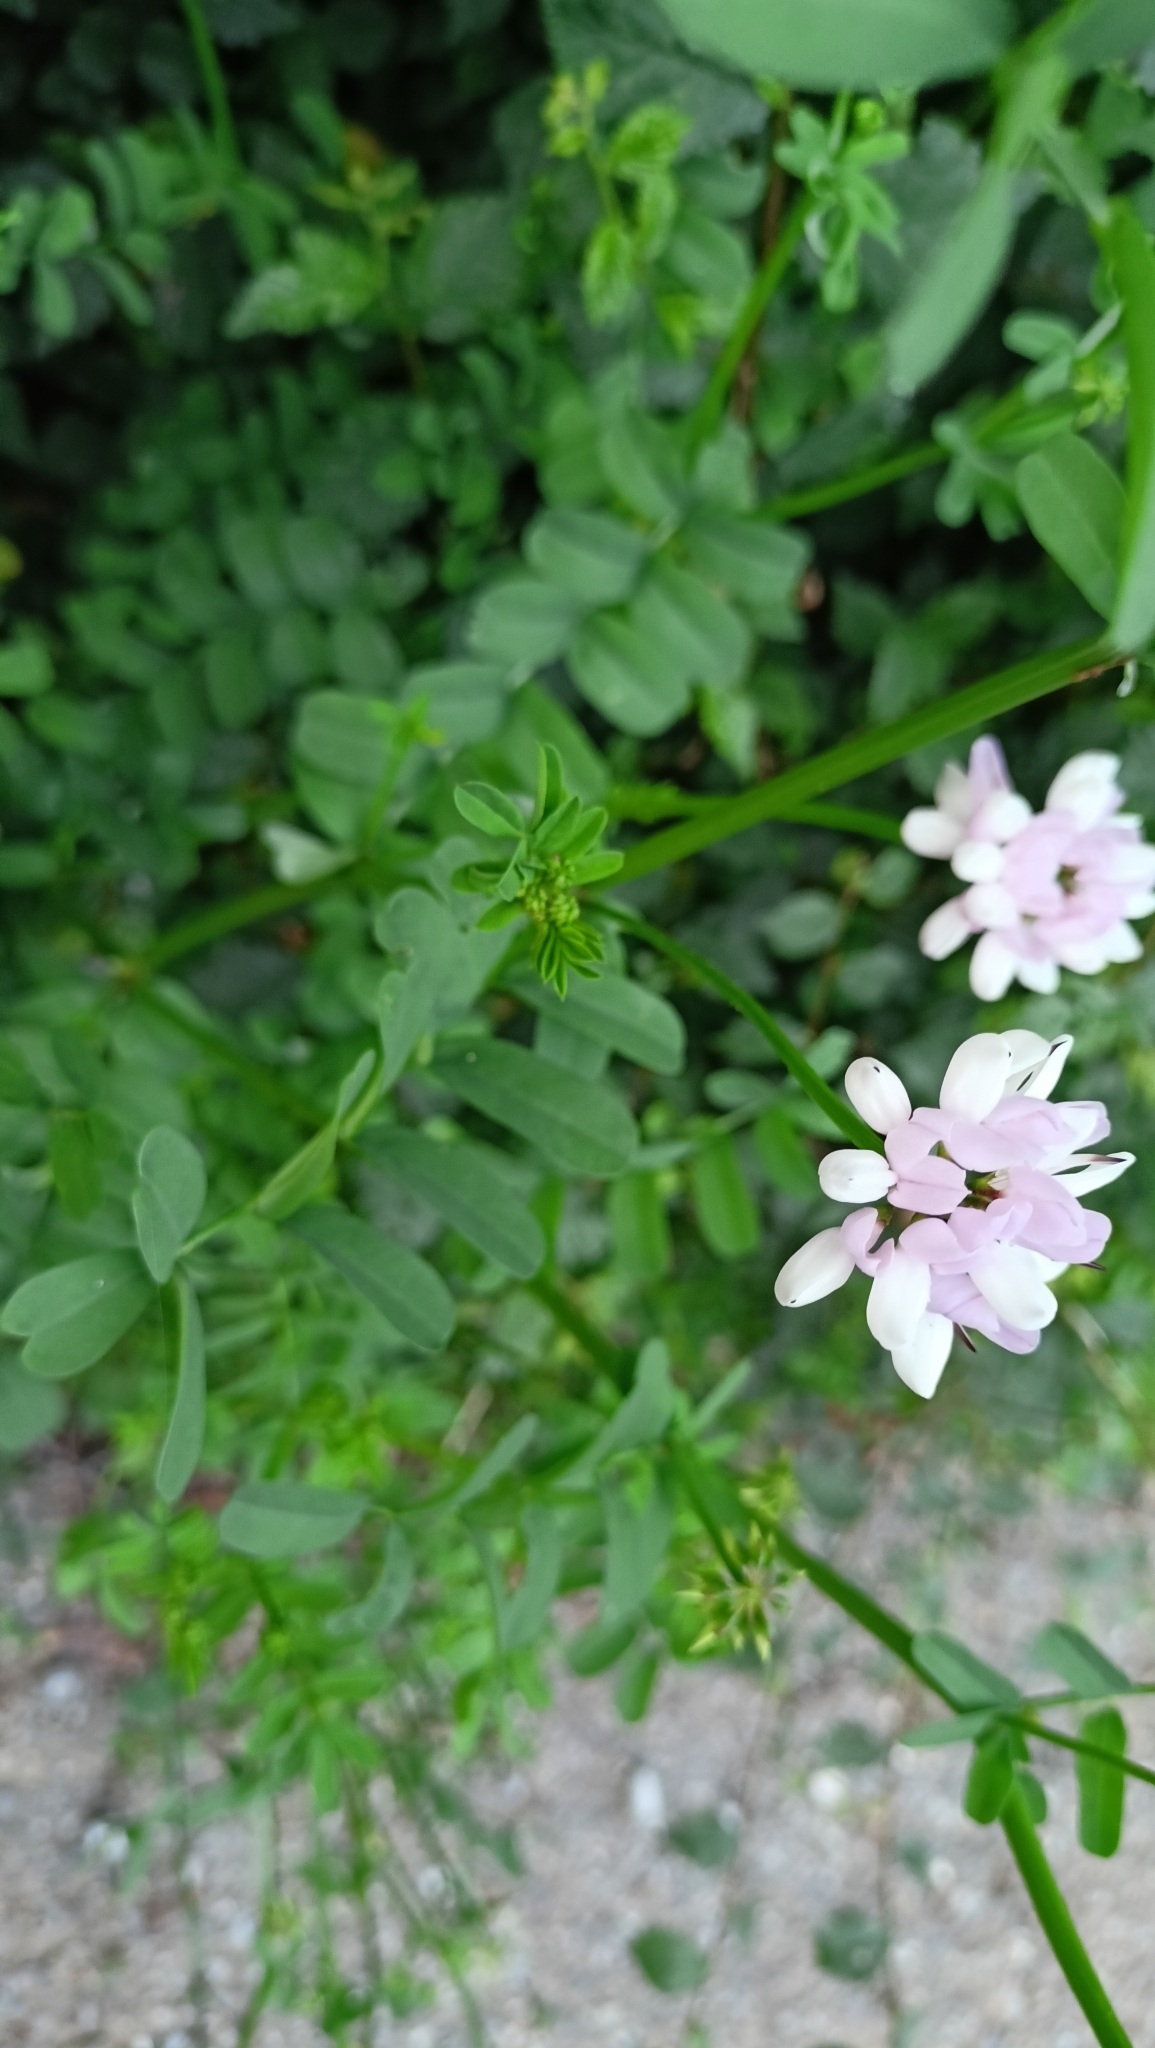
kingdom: Plantae
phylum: Tracheophyta
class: Magnoliopsida
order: Fabales
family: Fabaceae
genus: Coronilla
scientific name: Coronilla varia
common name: Crownvetch
